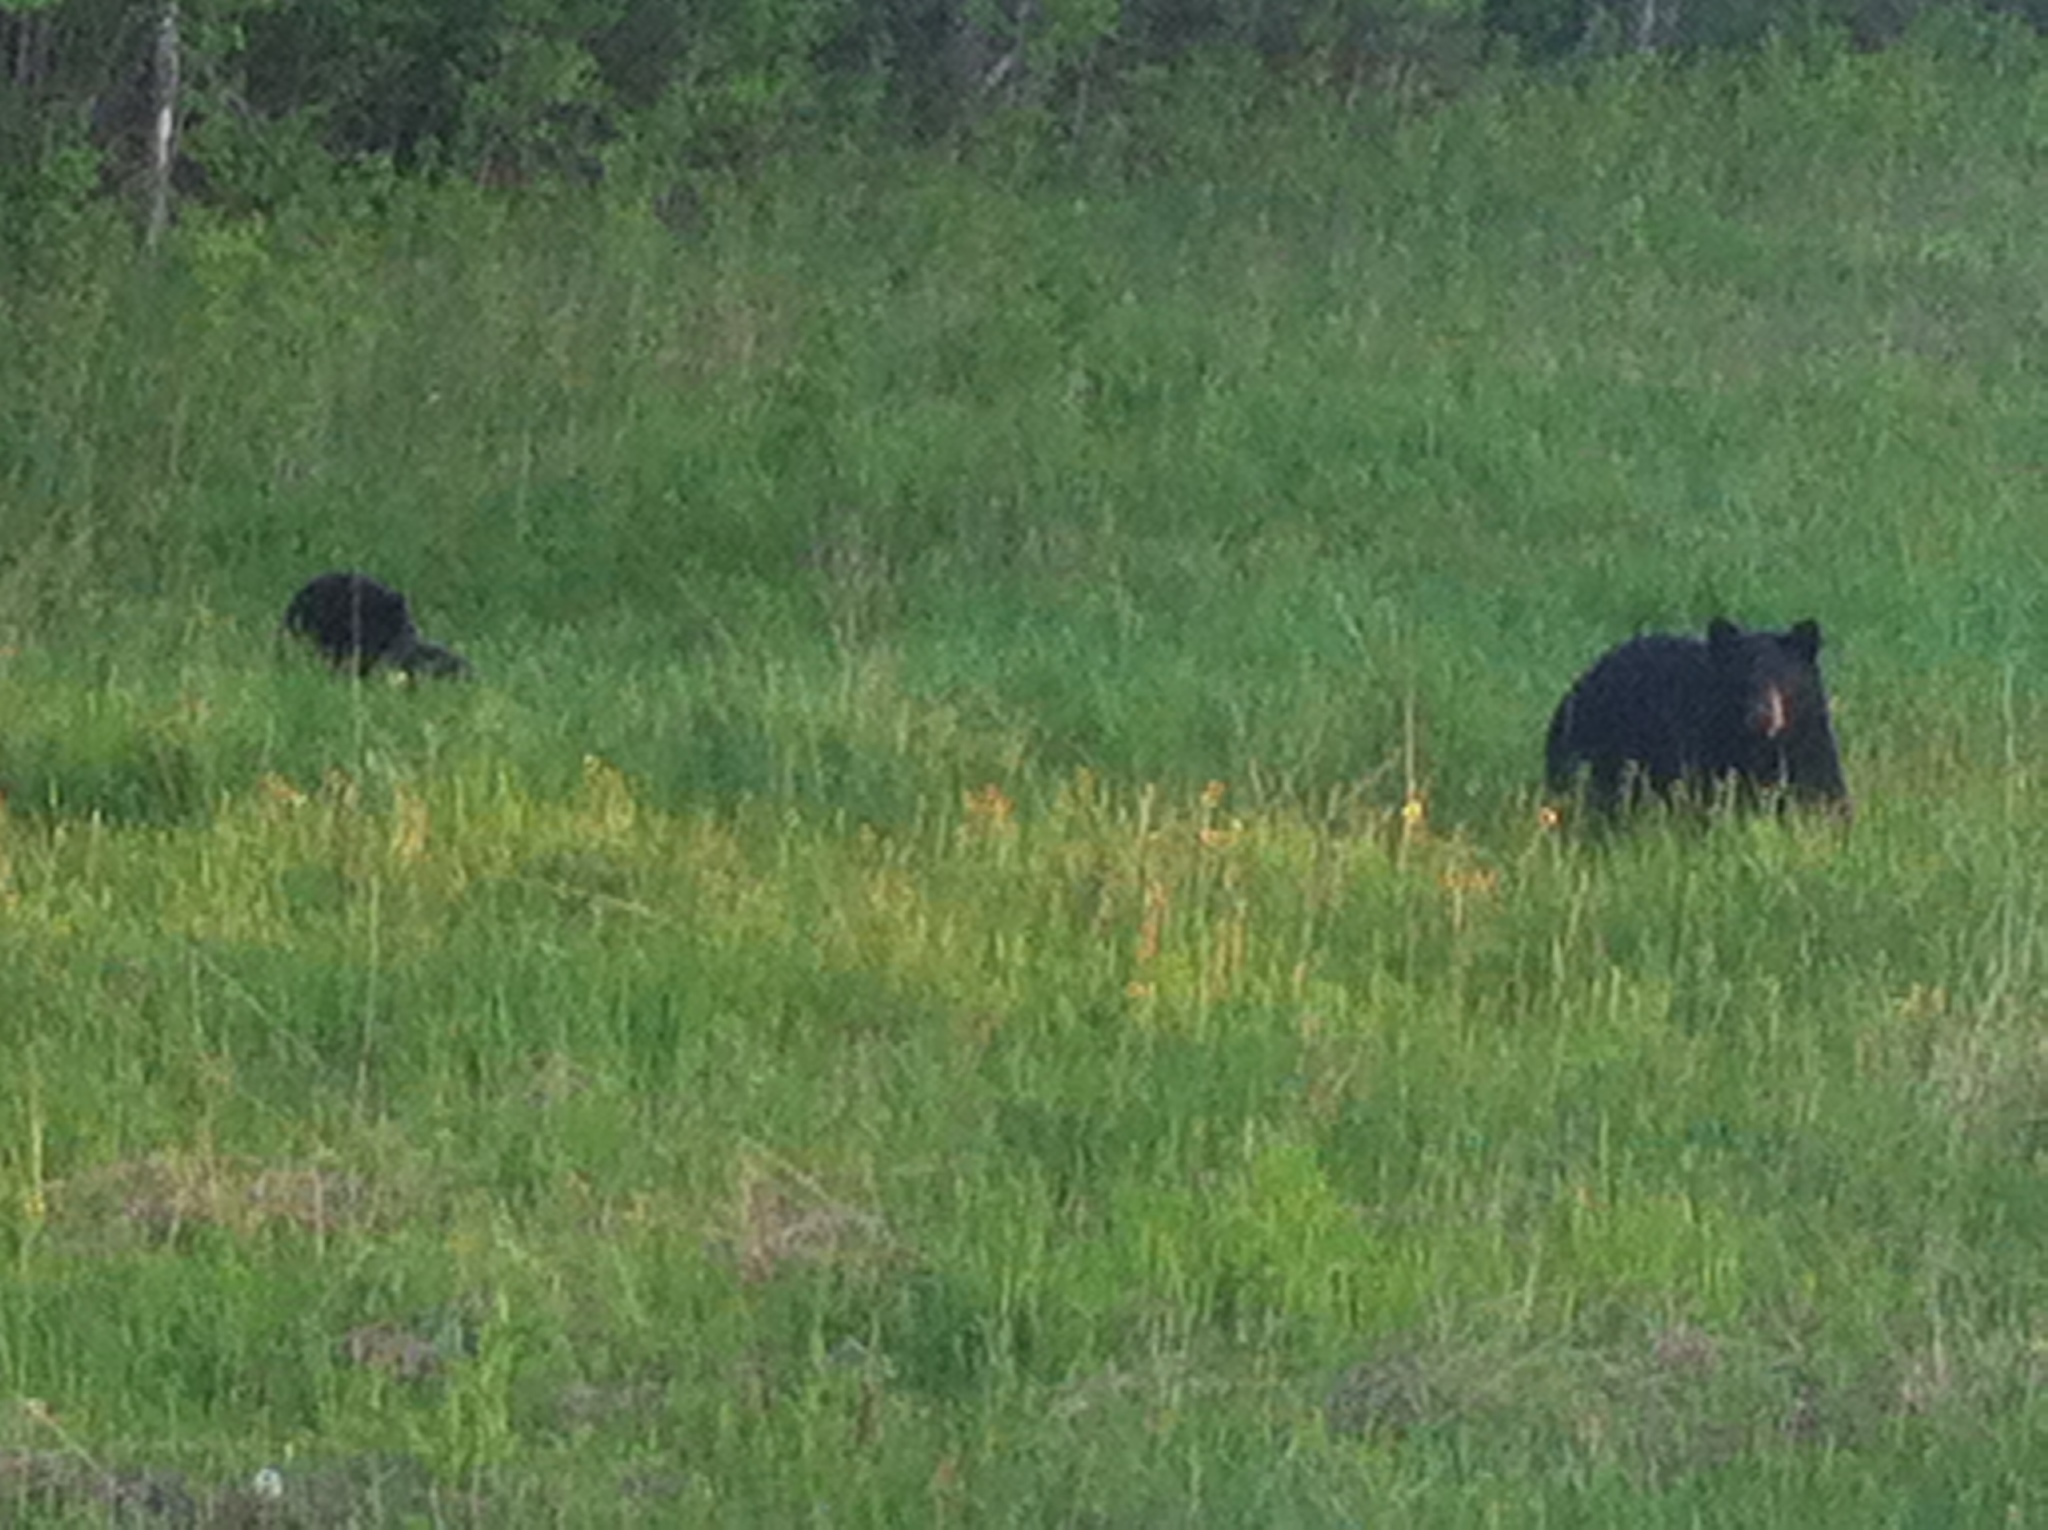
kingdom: Animalia
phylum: Chordata
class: Mammalia
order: Carnivora
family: Ursidae
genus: Ursus
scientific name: Ursus americanus
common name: American black bear
